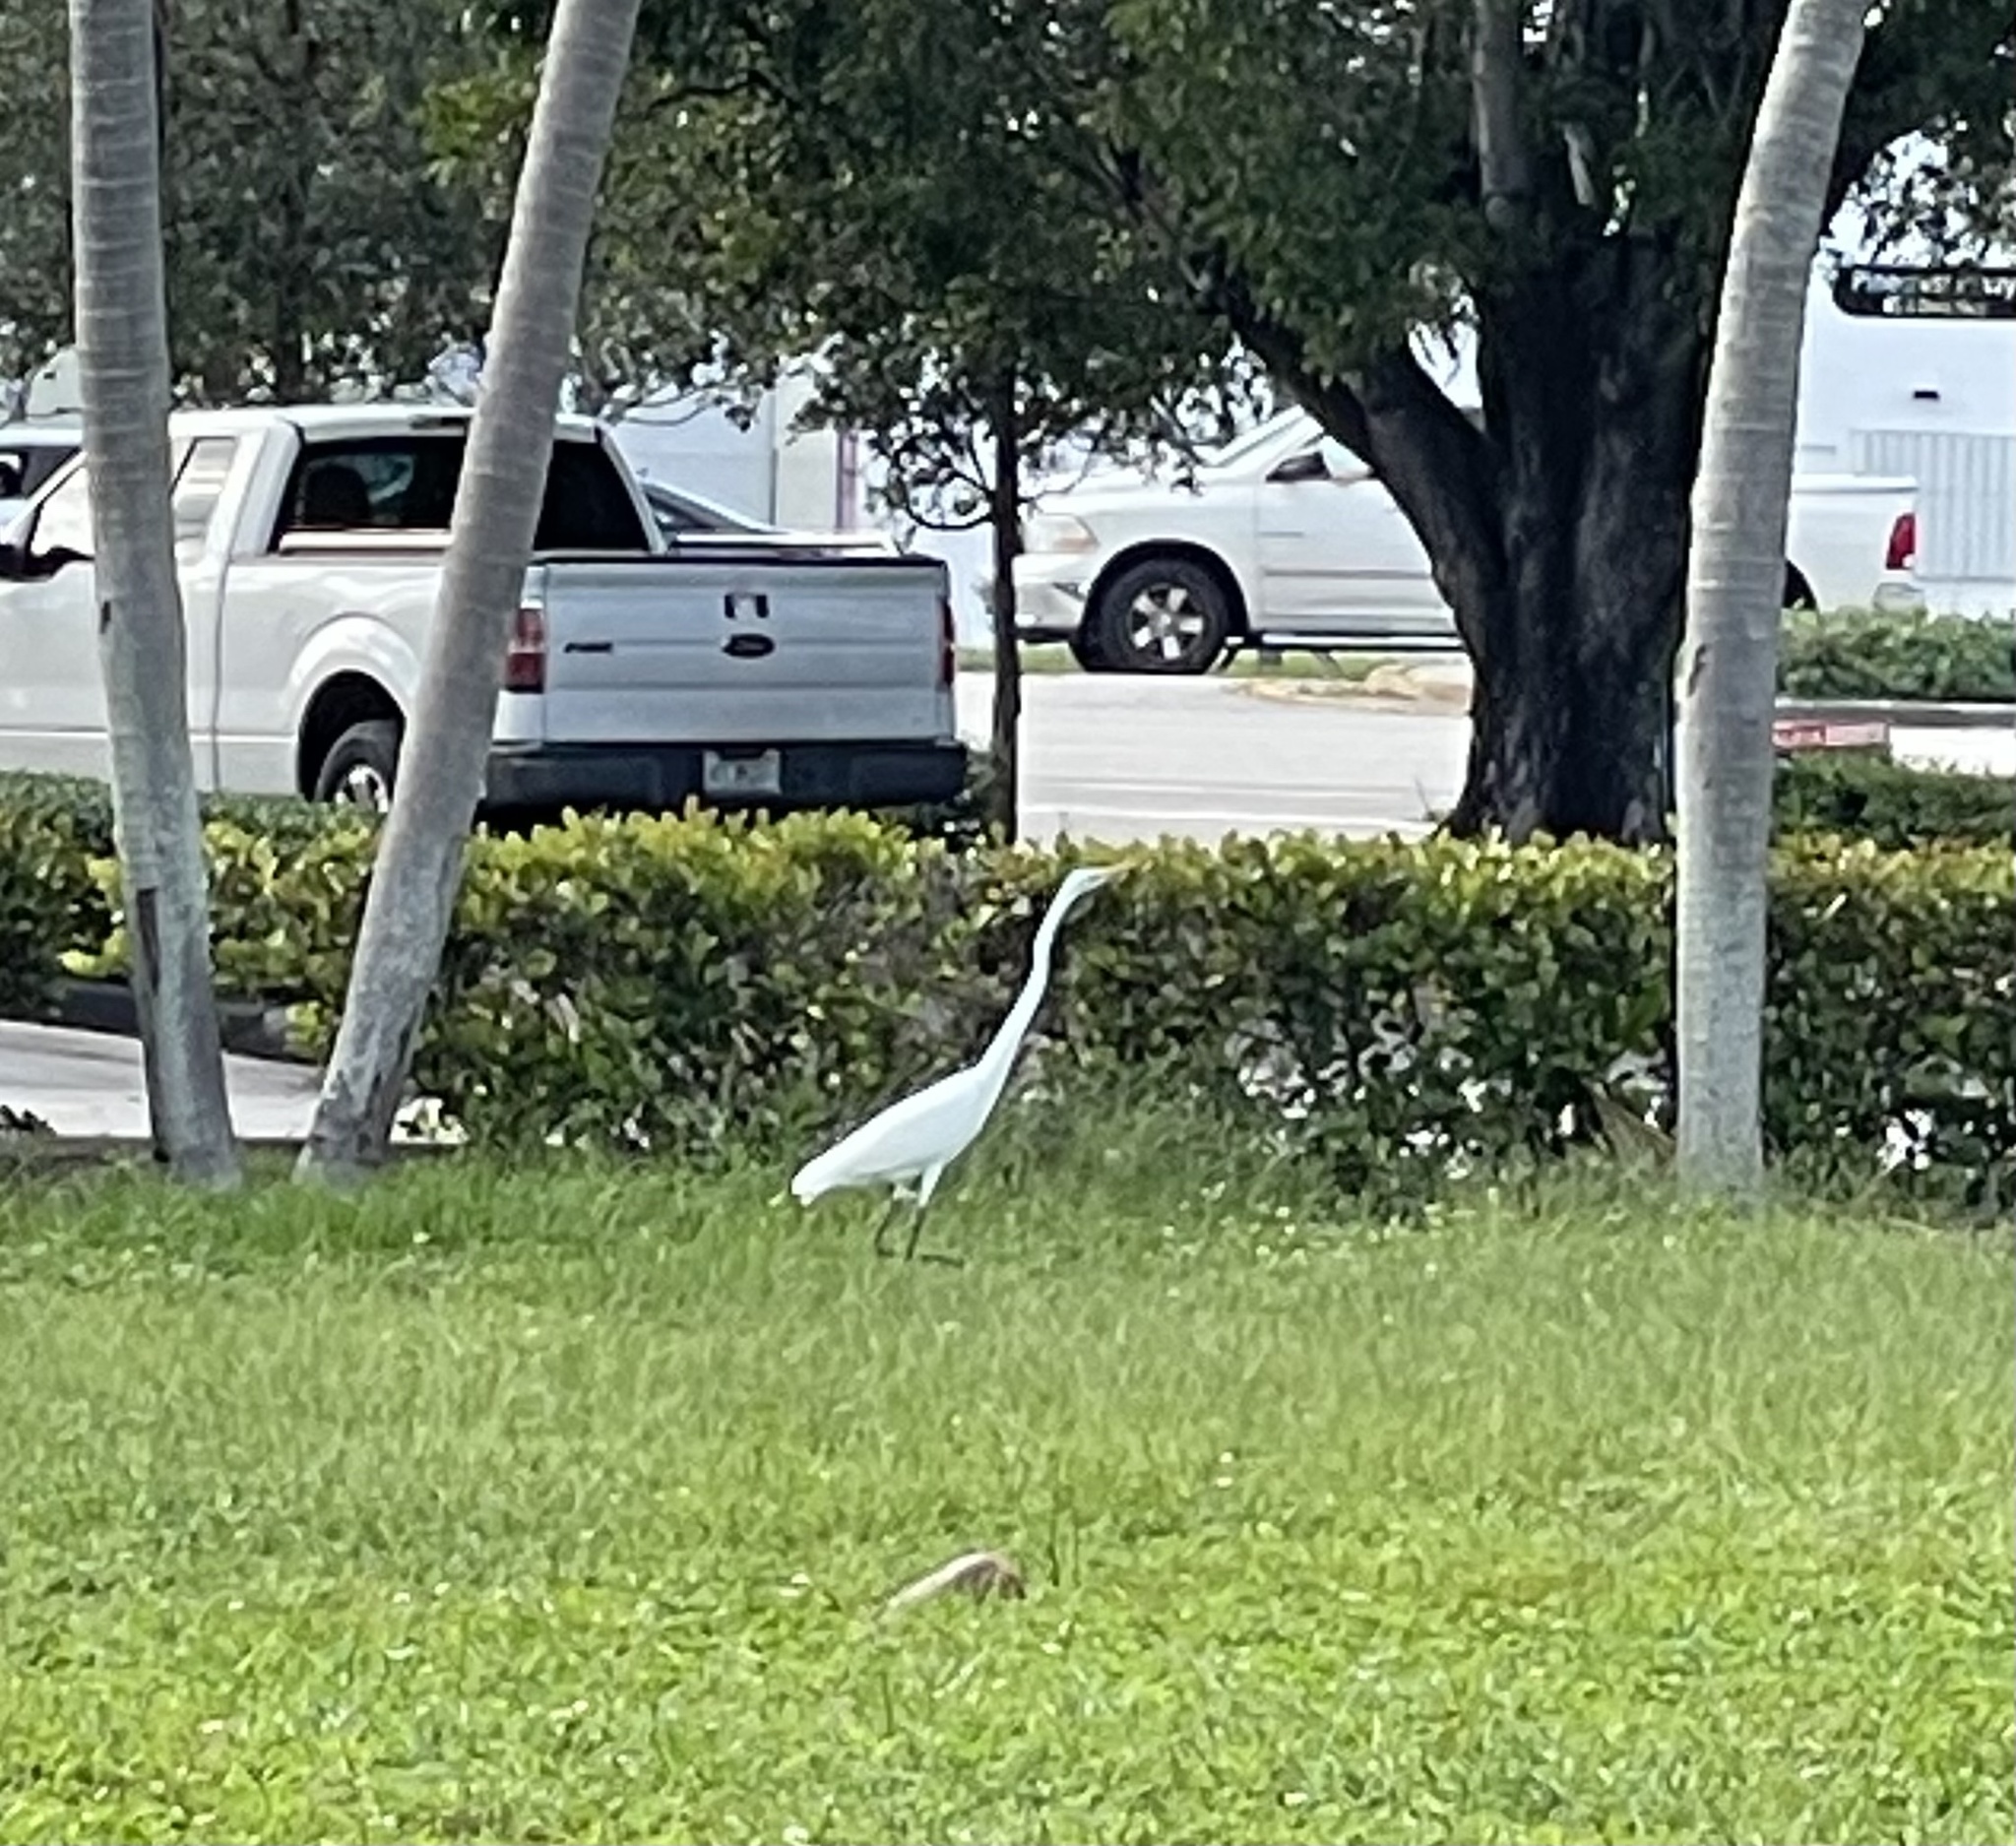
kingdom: Animalia
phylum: Chordata
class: Aves
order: Pelecaniformes
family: Ardeidae
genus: Ardea
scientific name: Ardea alba
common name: Great egret
